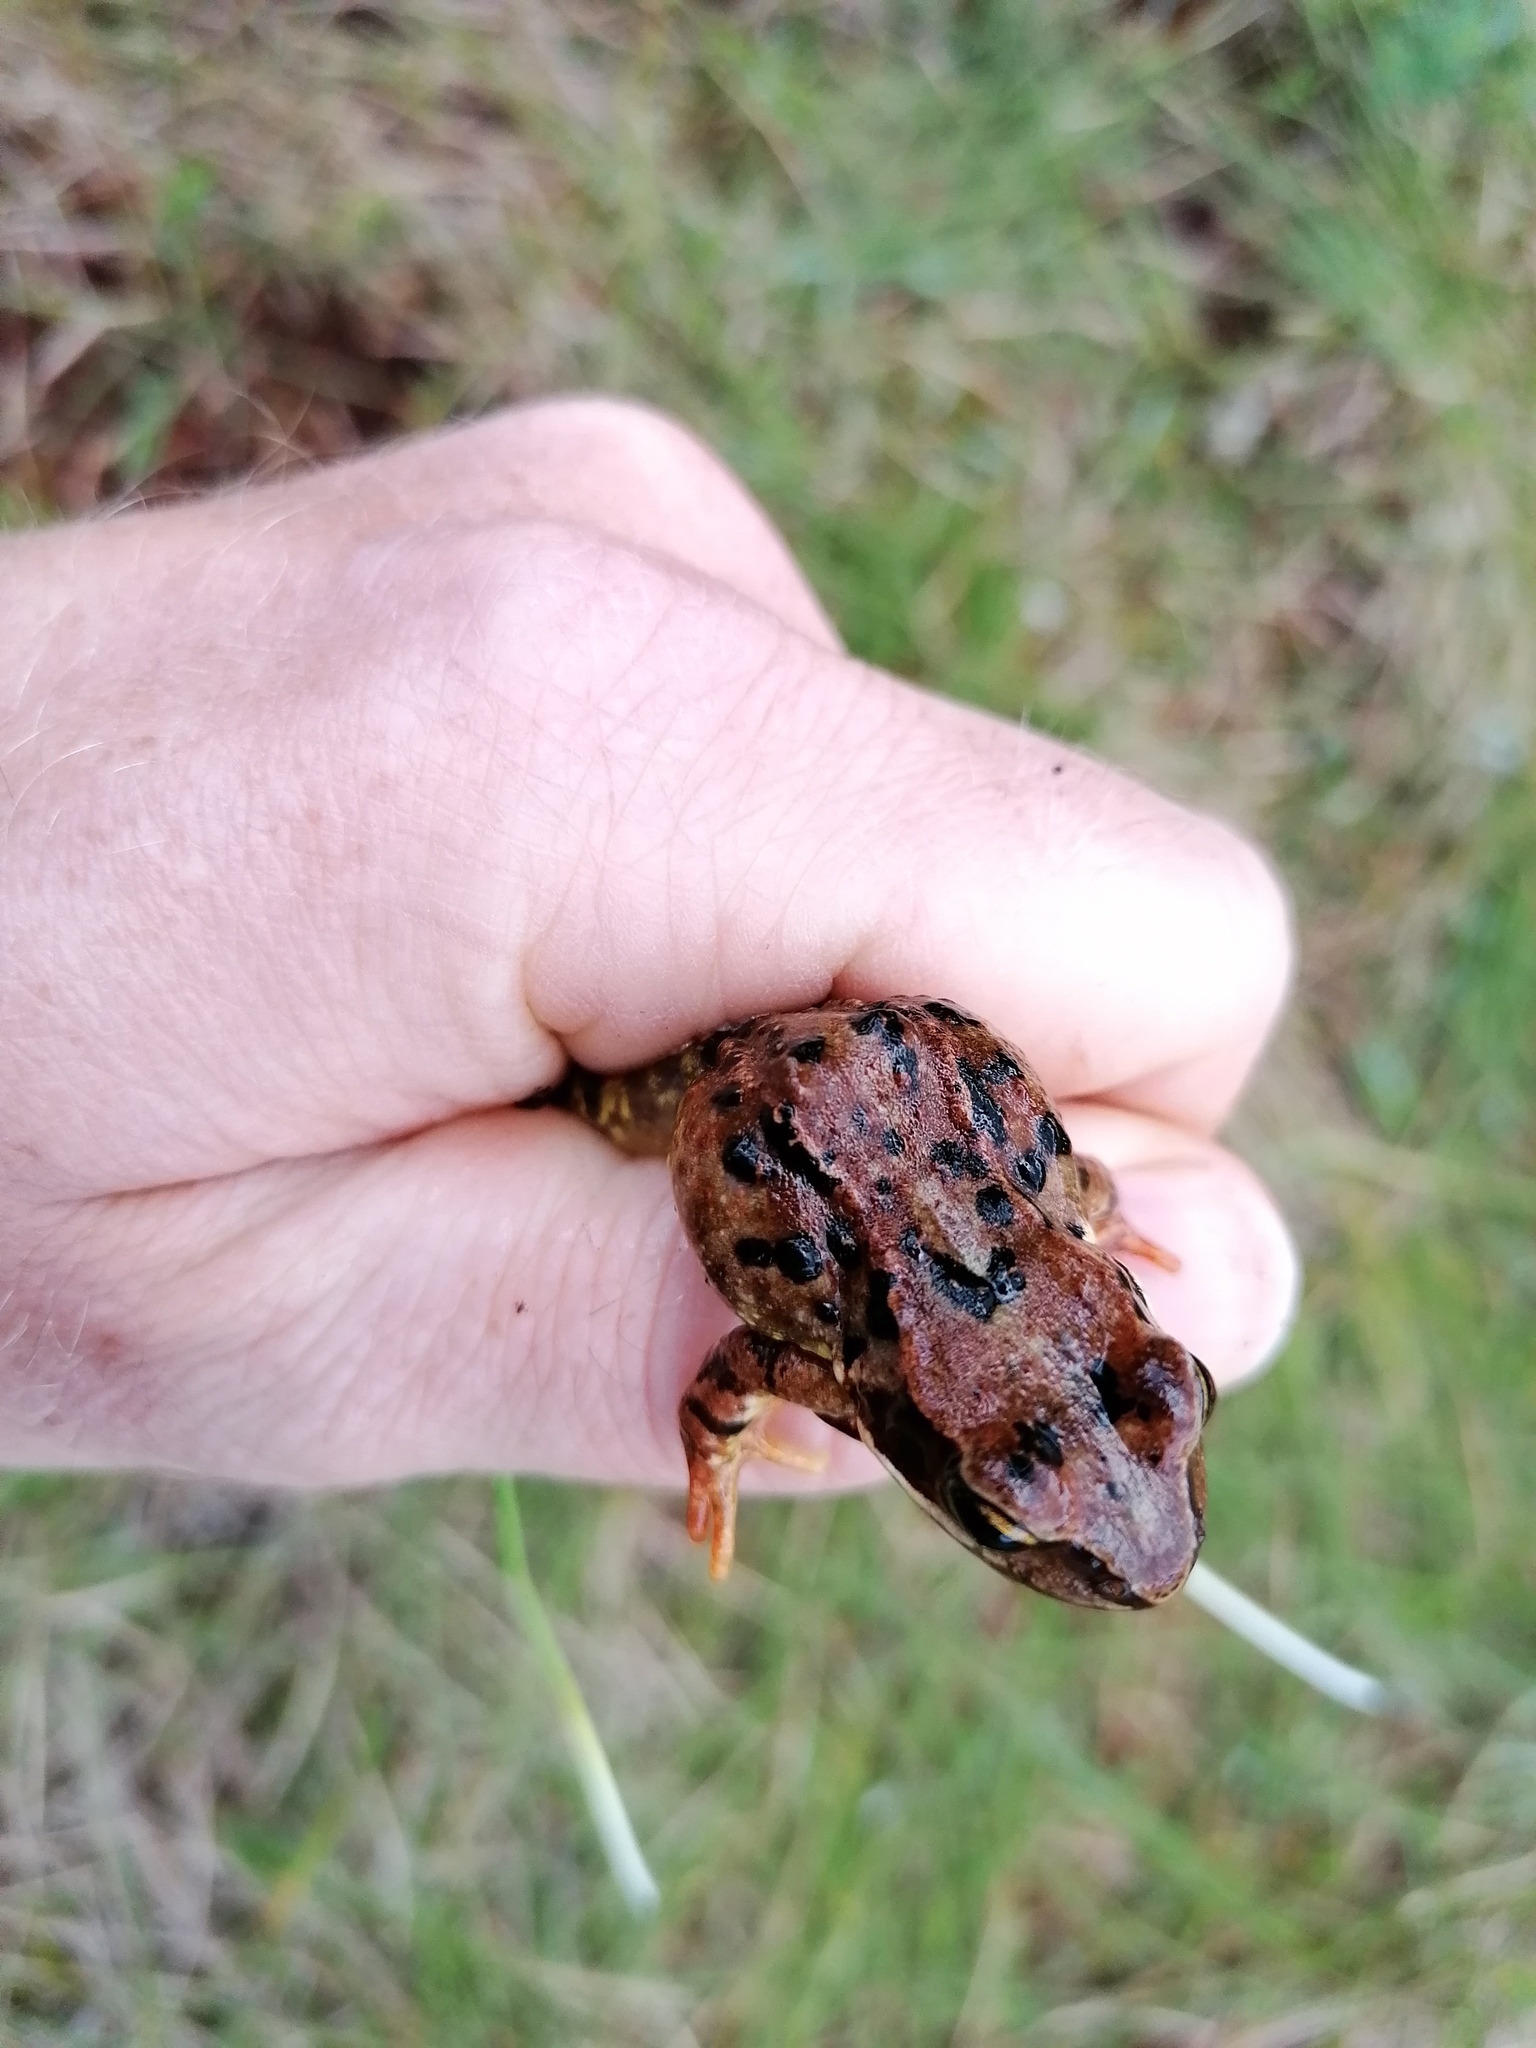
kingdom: Animalia
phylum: Chordata
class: Amphibia
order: Anura
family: Ranidae
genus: Rana
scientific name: Rana temporaria
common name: Common frog
